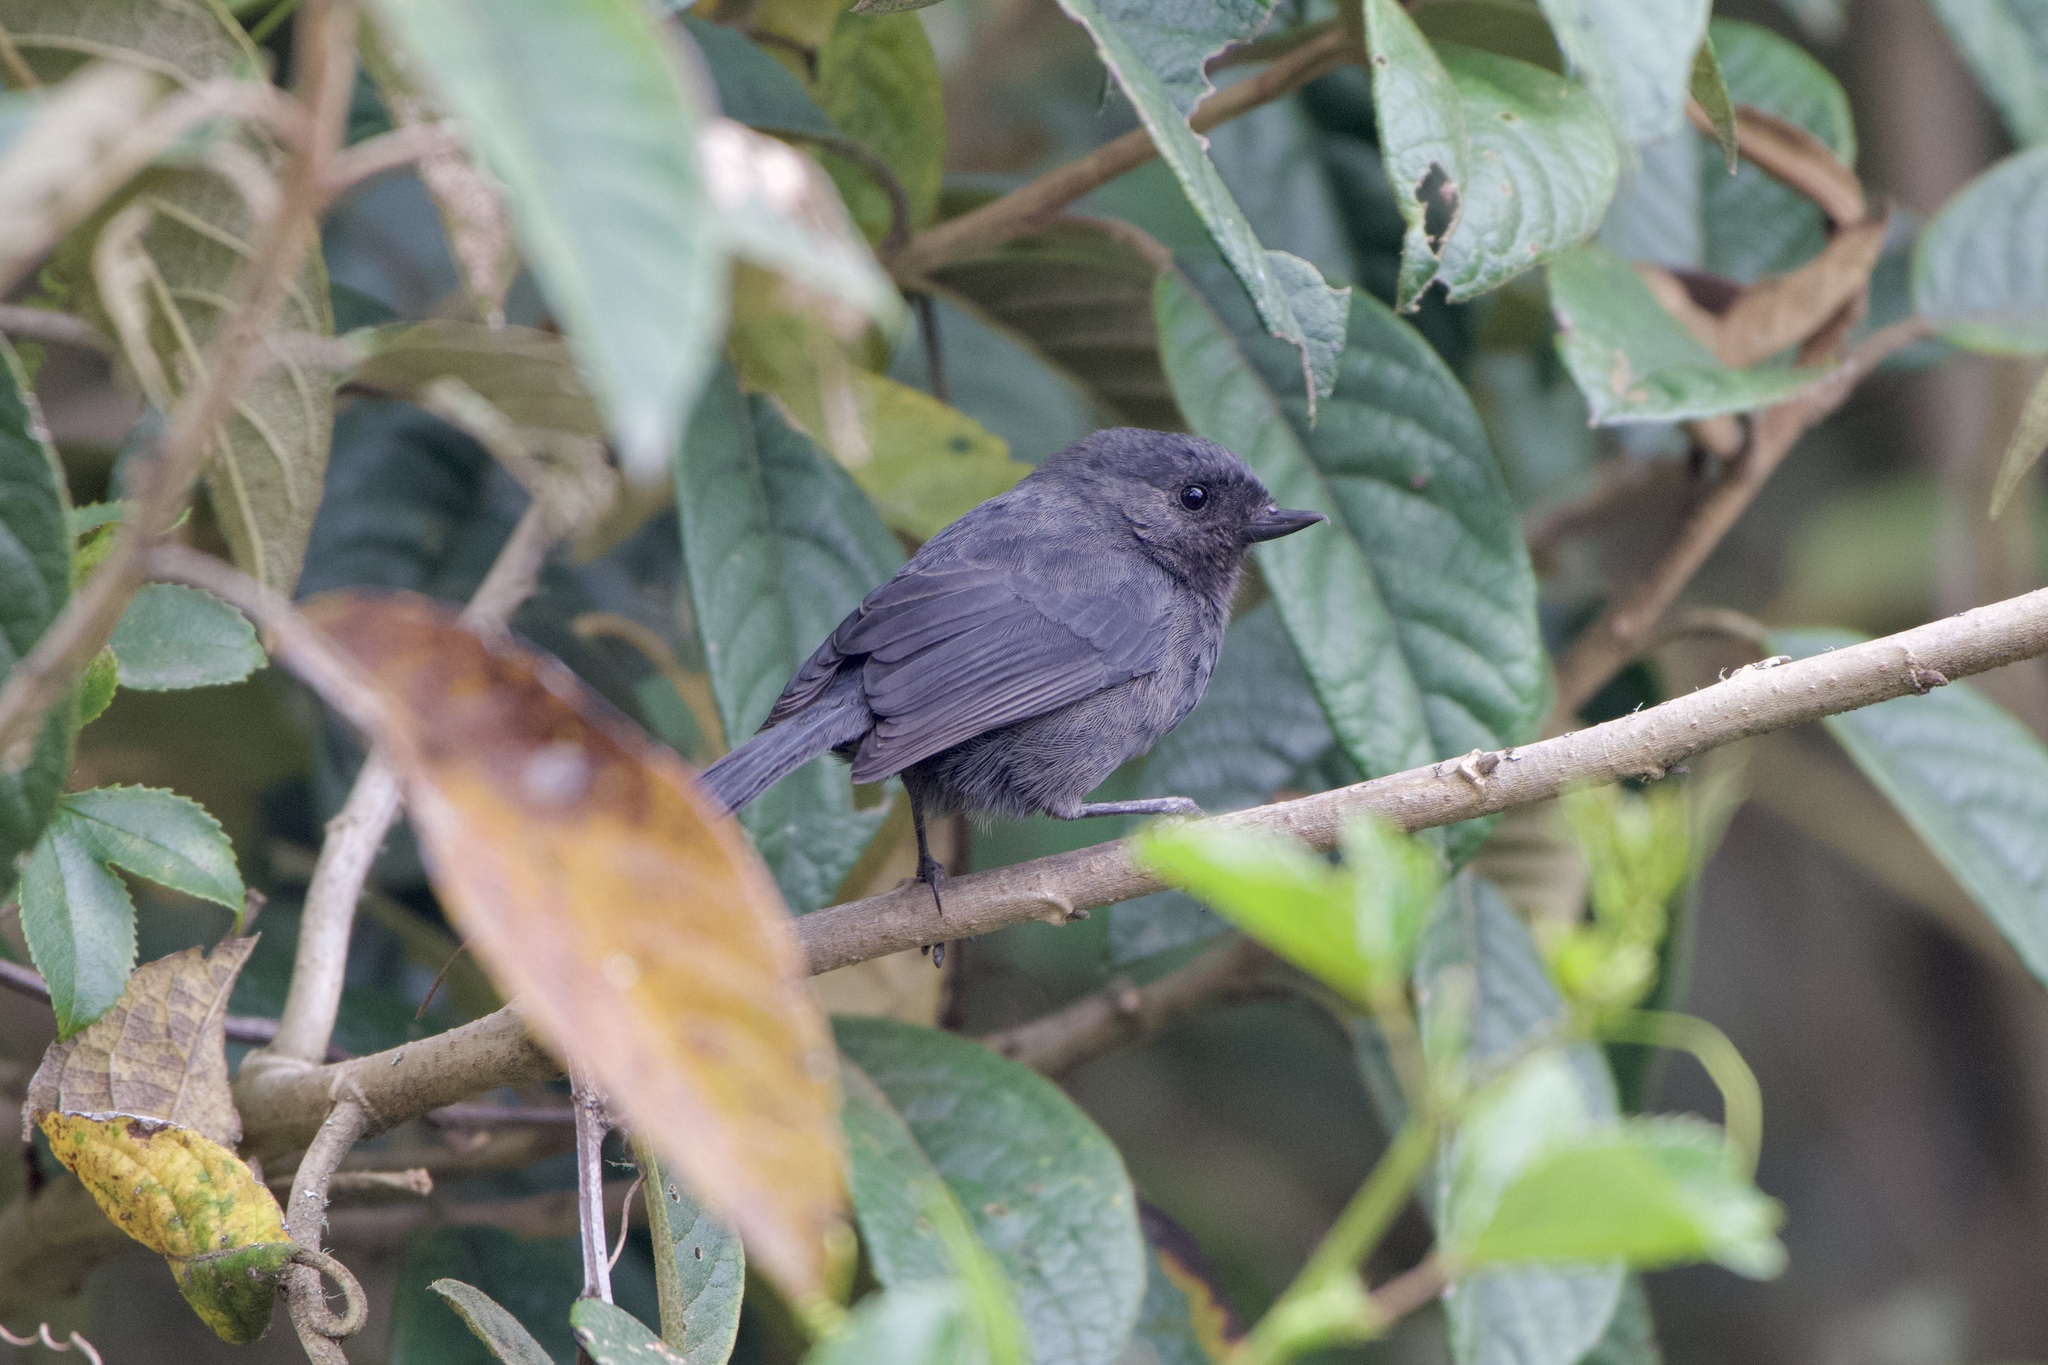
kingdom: Animalia
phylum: Chordata
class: Aves
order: Passeriformes
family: Thraupidae
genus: Diglossa
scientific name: Diglossa humeralis
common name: Black flowerpiercer
